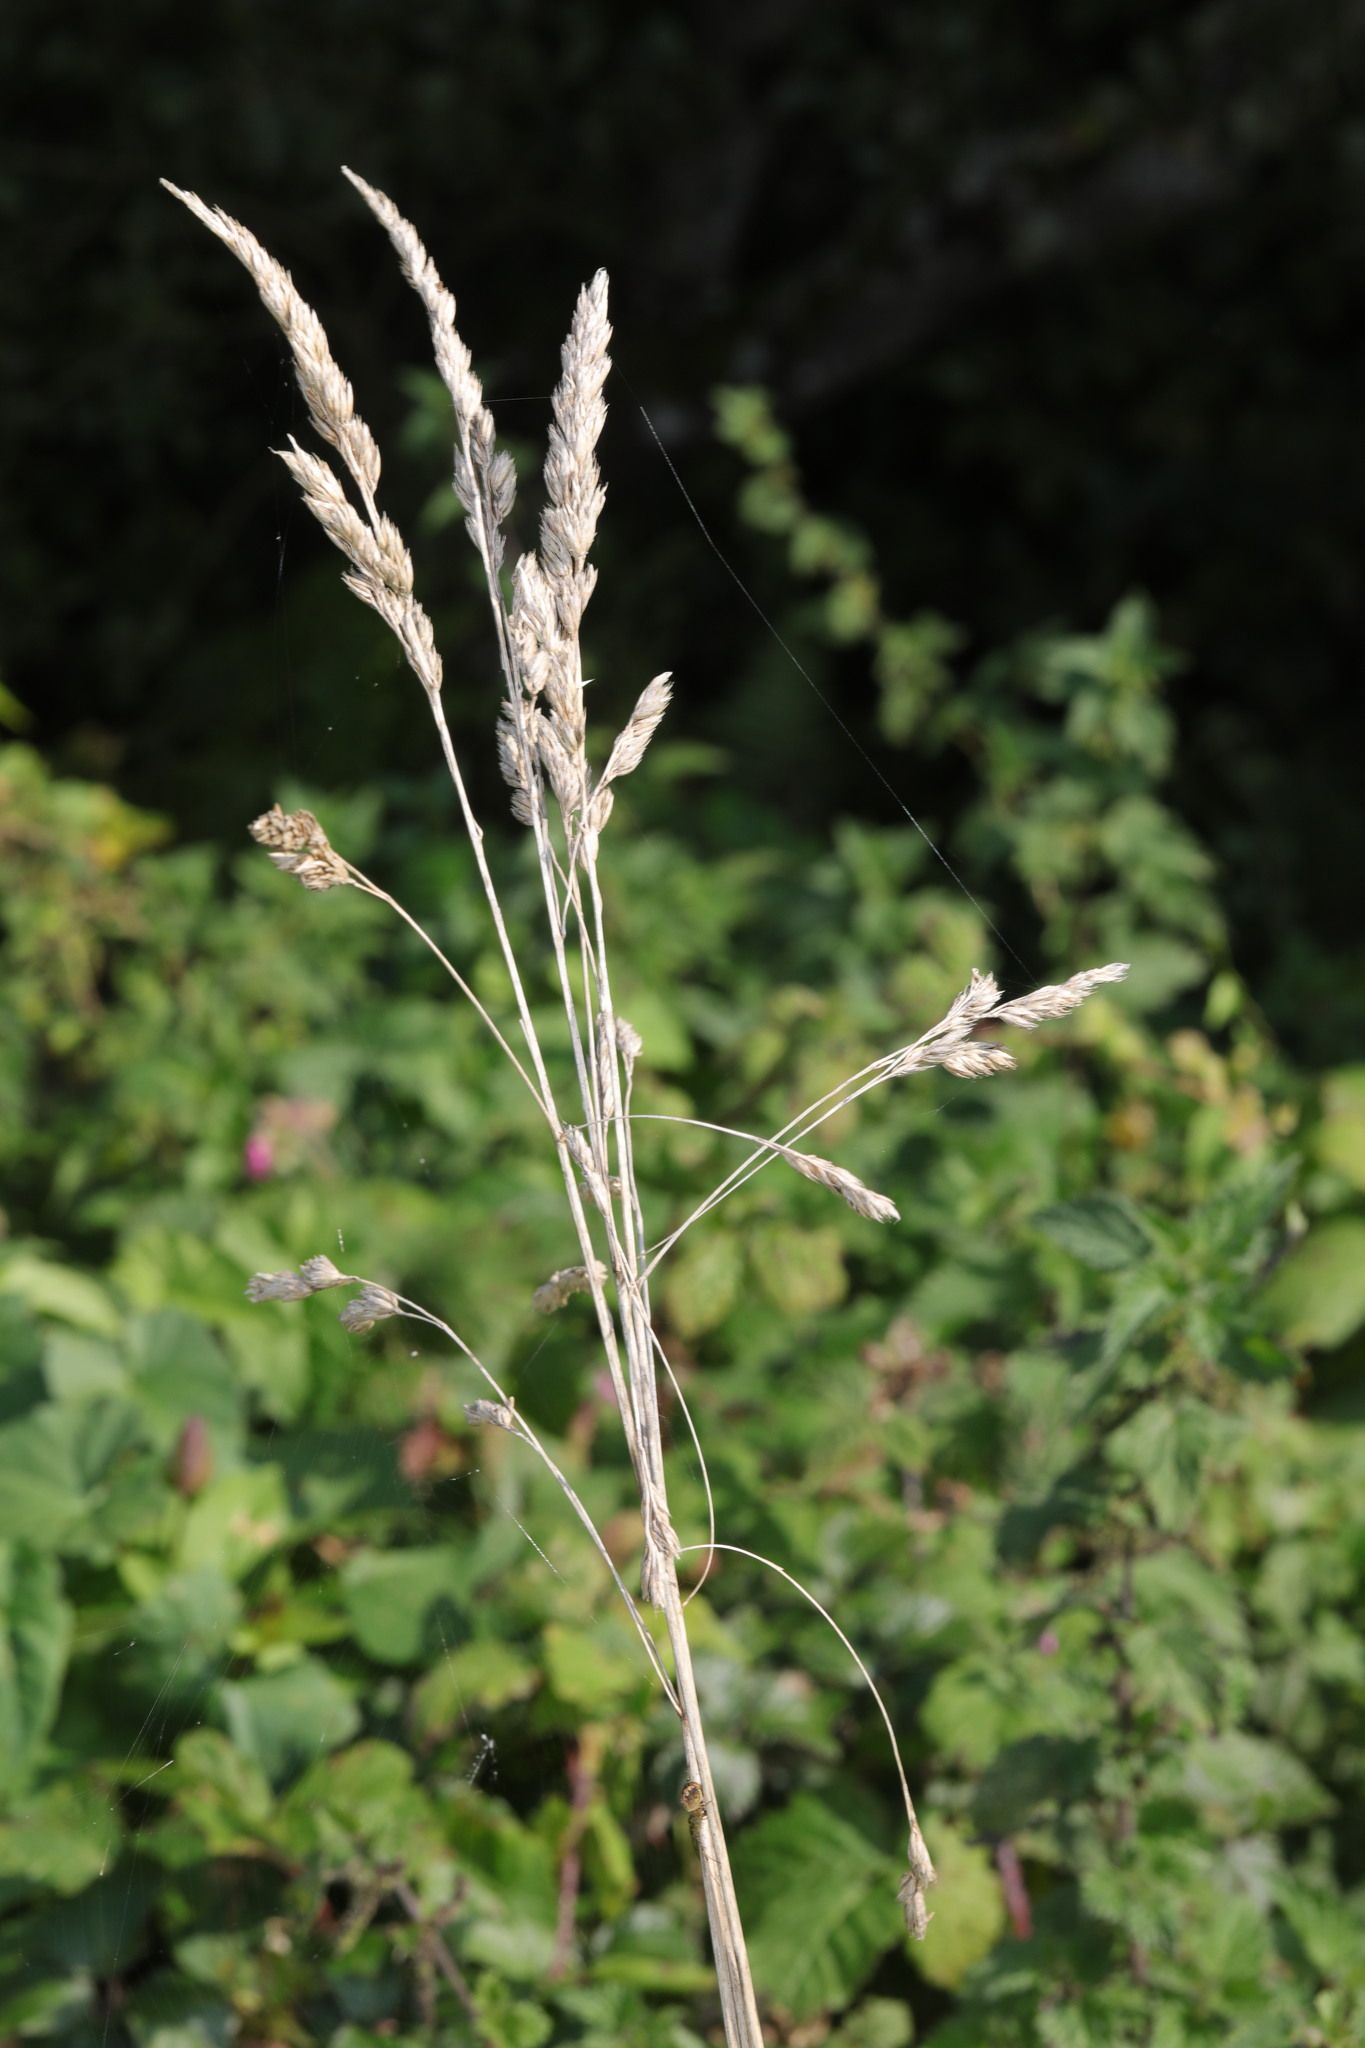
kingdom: Plantae
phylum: Tracheophyta
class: Liliopsida
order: Poales
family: Poaceae
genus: Dactylis
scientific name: Dactylis glomerata
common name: Orchardgrass
